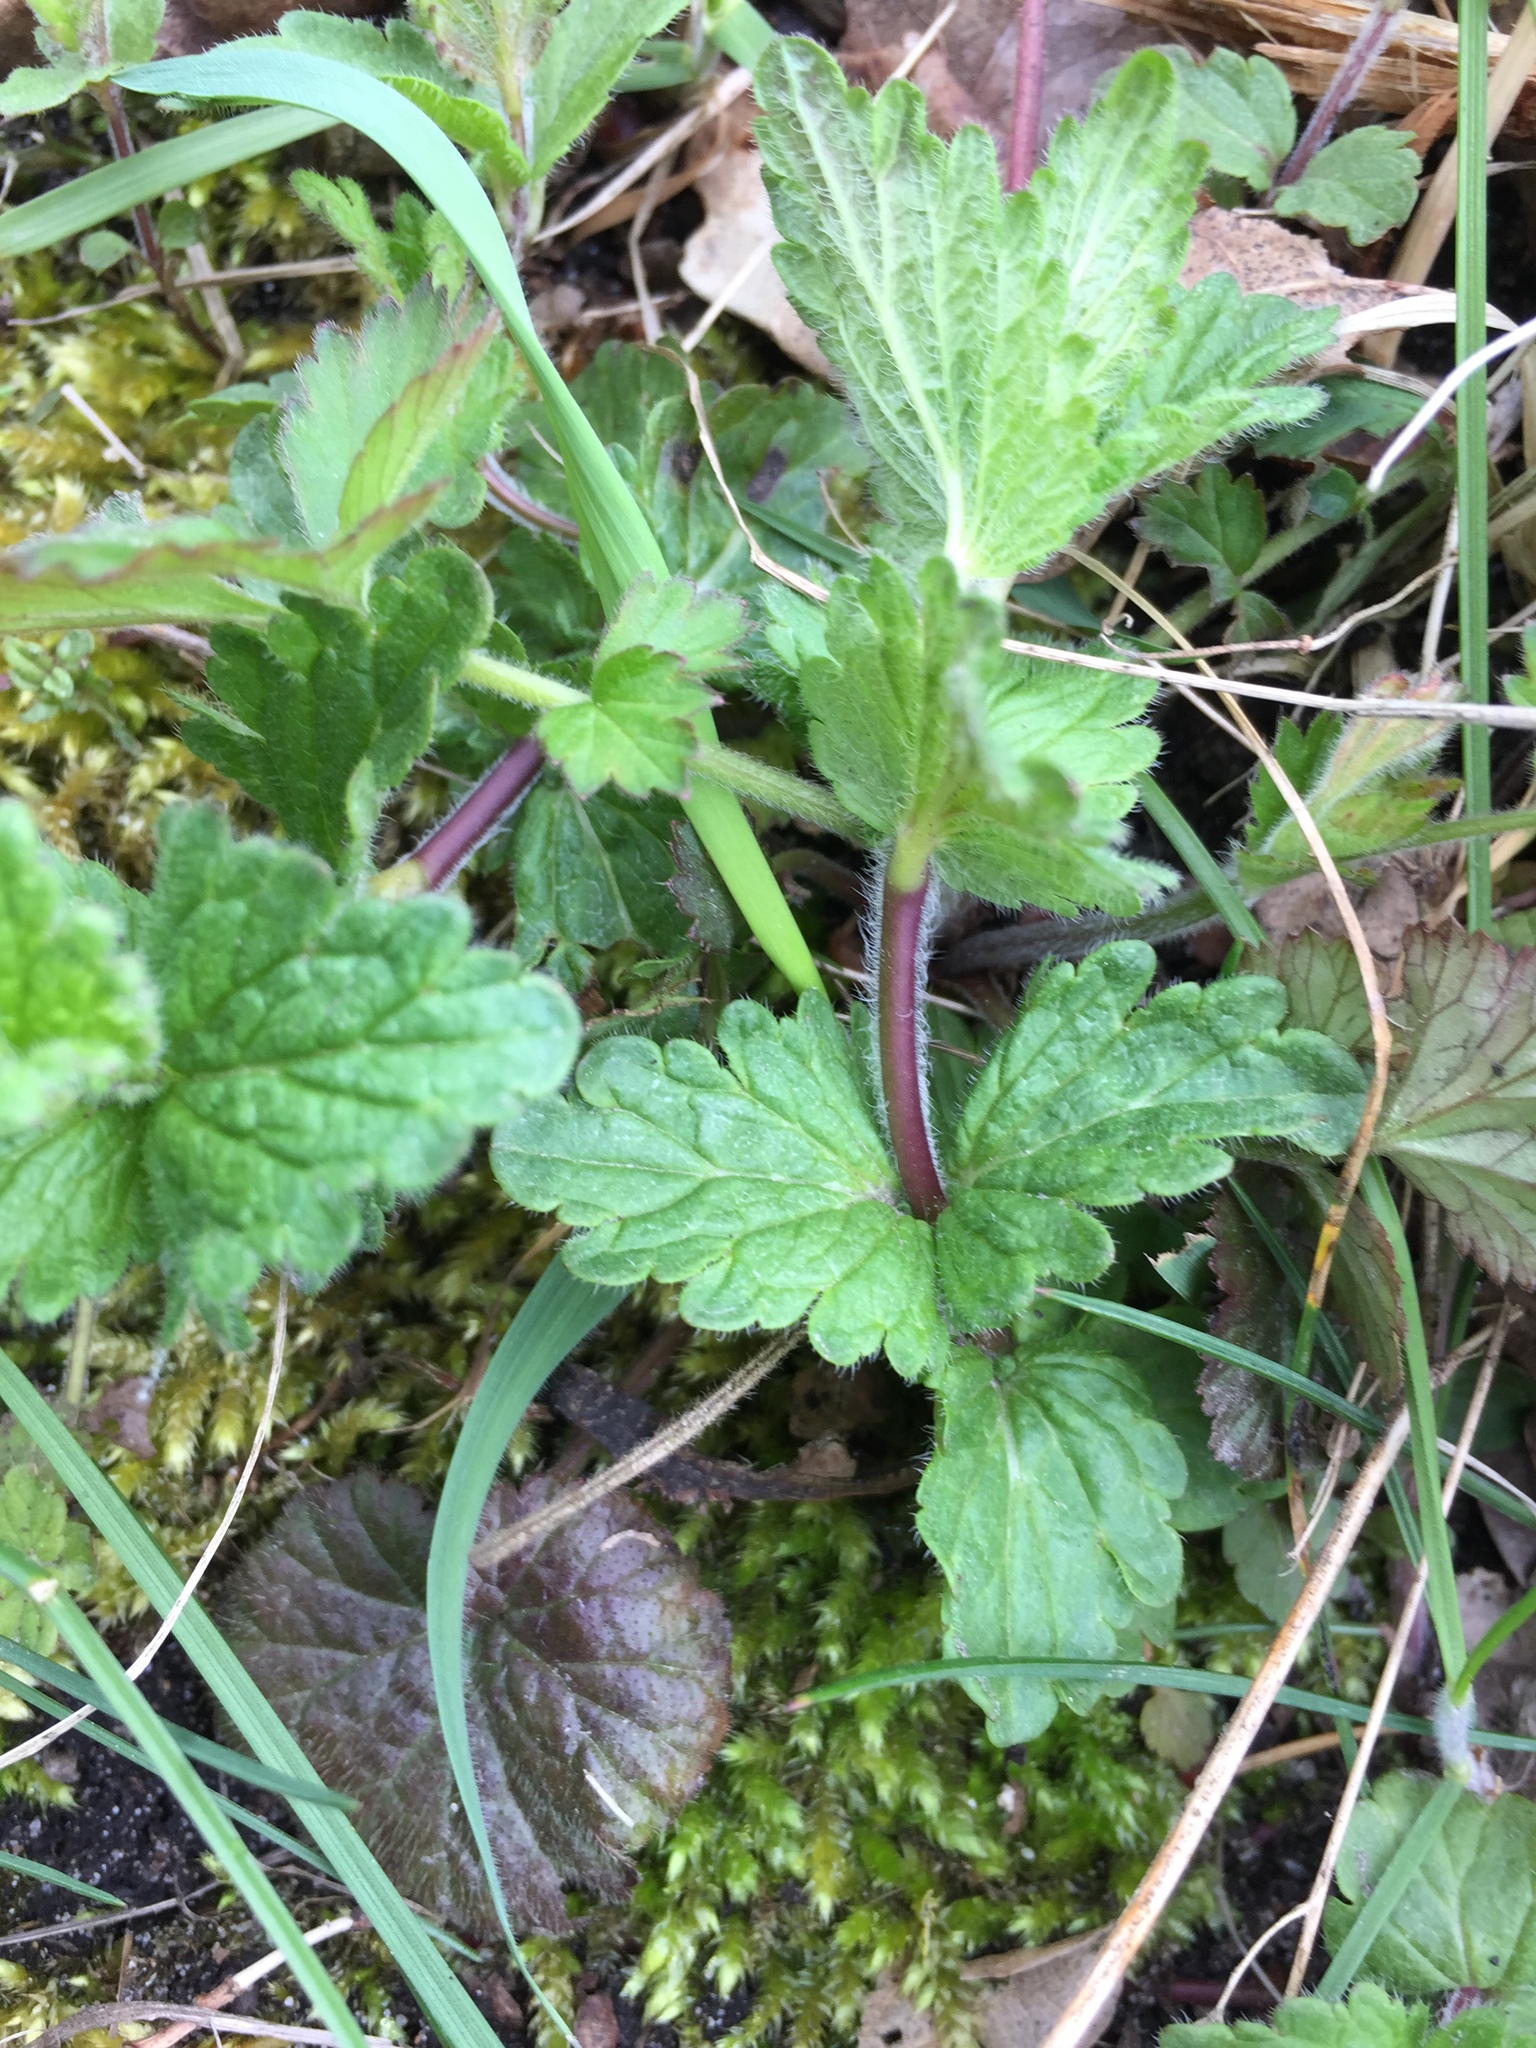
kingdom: Plantae
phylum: Tracheophyta
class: Magnoliopsida
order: Lamiales
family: Plantaginaceae
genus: Veronica
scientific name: Veronica chamaedrys
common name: Germander speedwell
